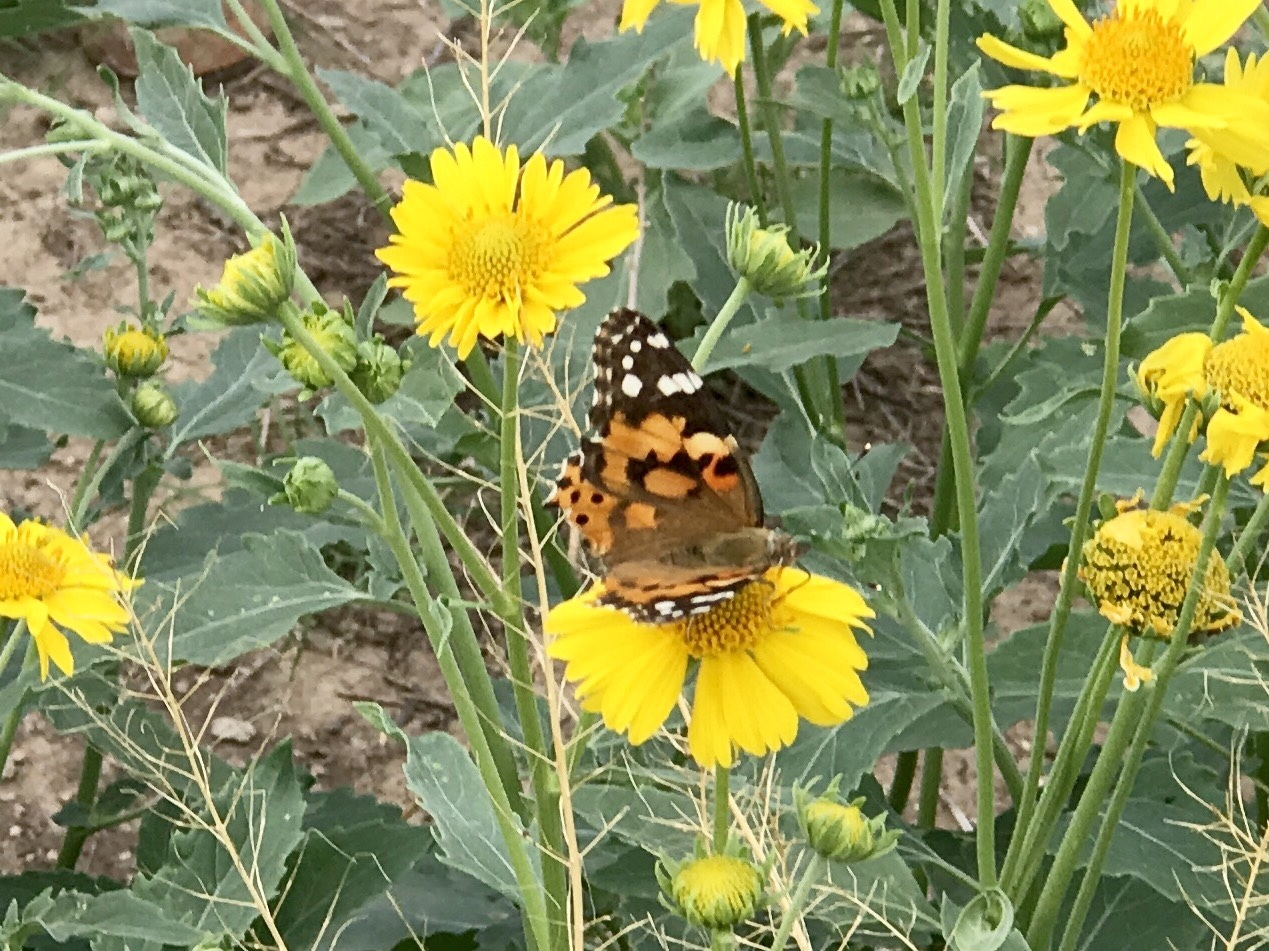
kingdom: Animalia
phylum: Arthropoda
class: Insecta
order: Lepidoptera
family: Nymphalidae
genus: Vanessa
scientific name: Vanessa cardui
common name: Painted lady
